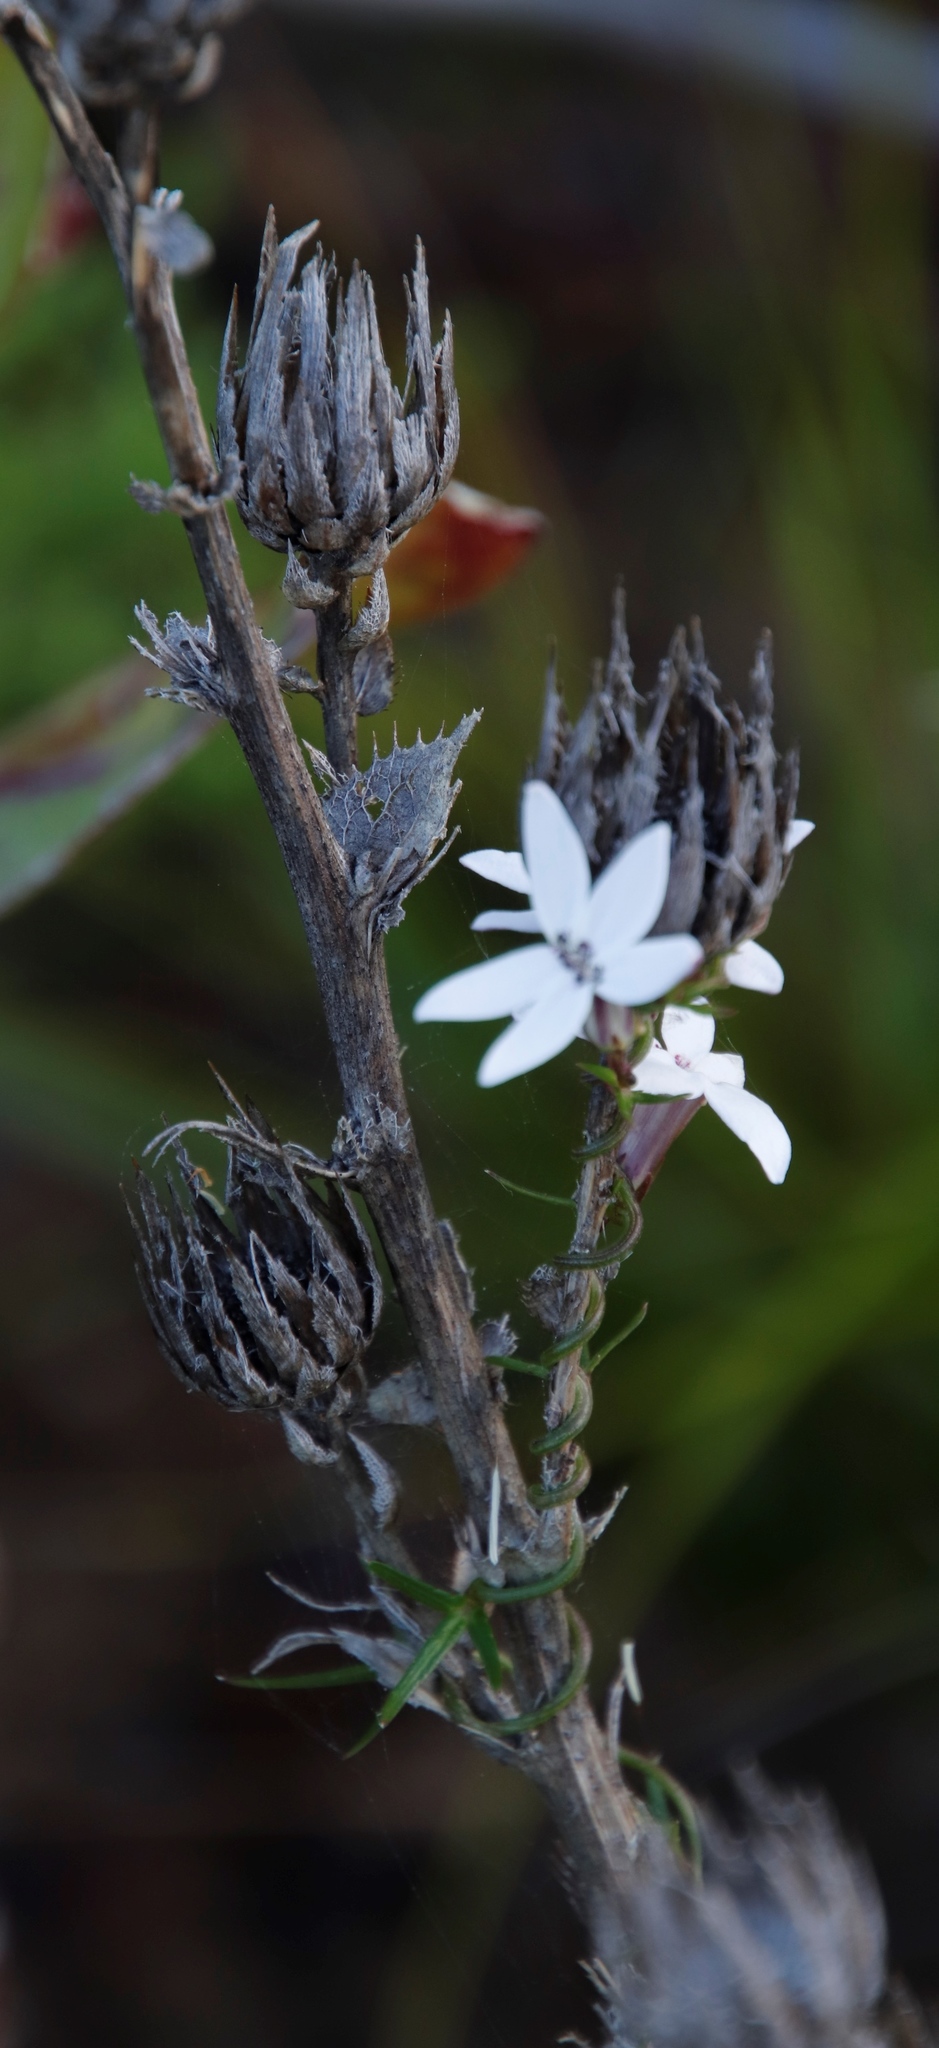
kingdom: Plantae
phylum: Tracheophyta
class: Magnoliopsida
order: Asterales
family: Campanulaceae
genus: Cyphia
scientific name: Cyphia volubilis
